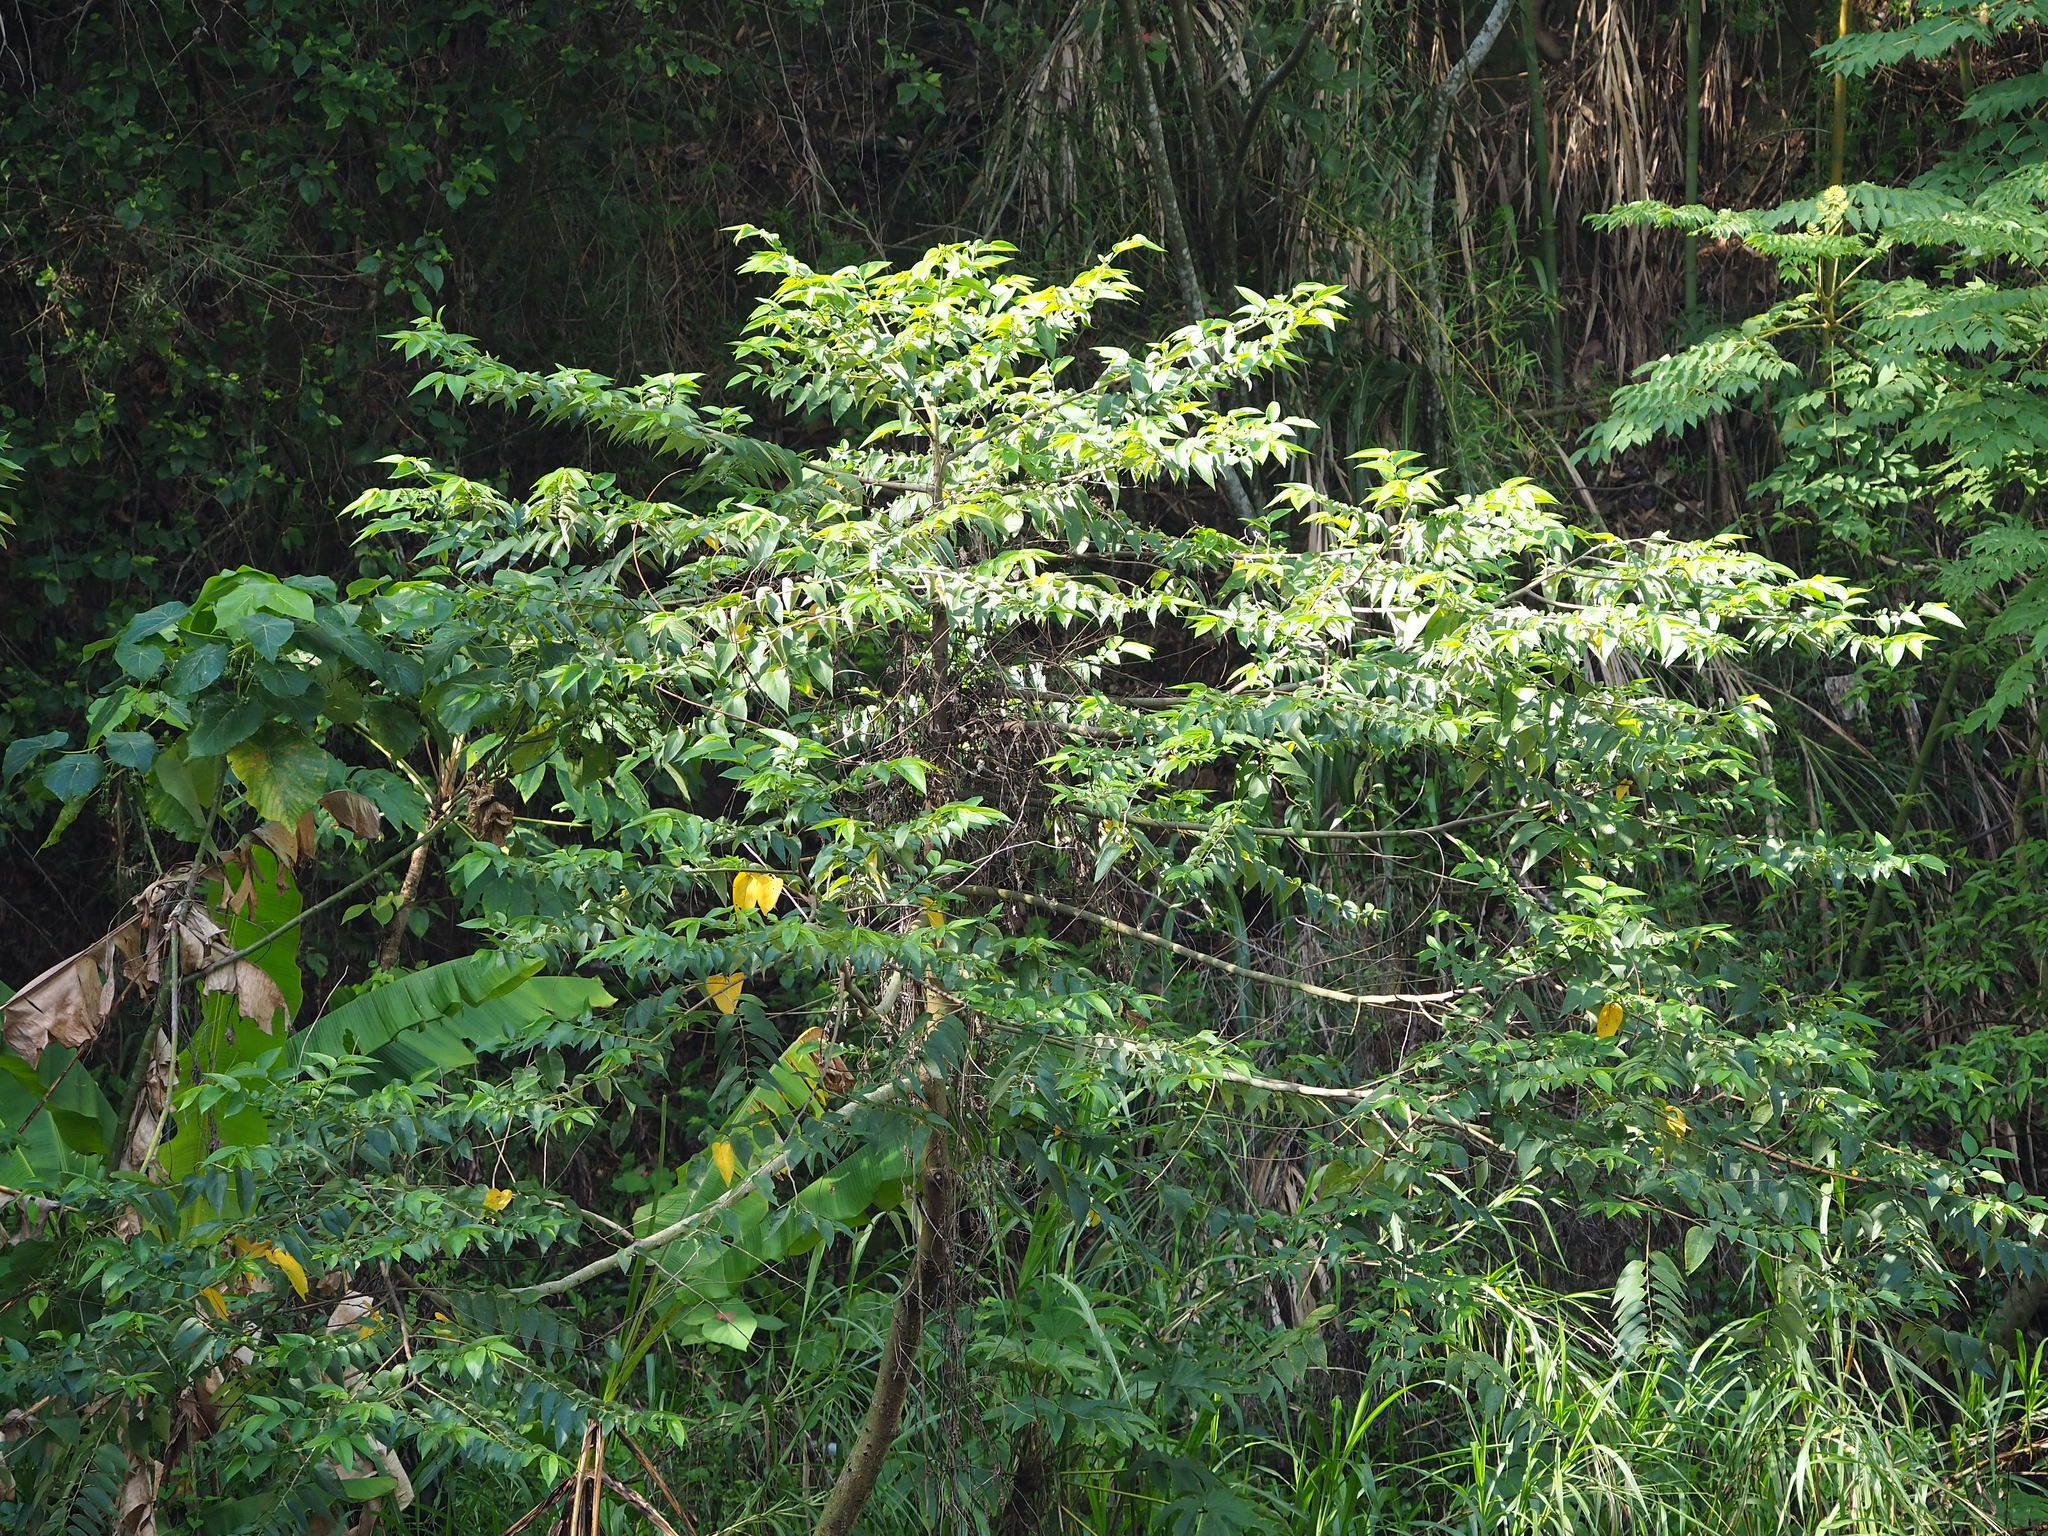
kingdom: Plantae
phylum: Tracheophyta
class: Magnoliopsida
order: Rosales
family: Cannabaceae
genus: Trema
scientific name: Trema orientale
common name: Indian charcoal tree
